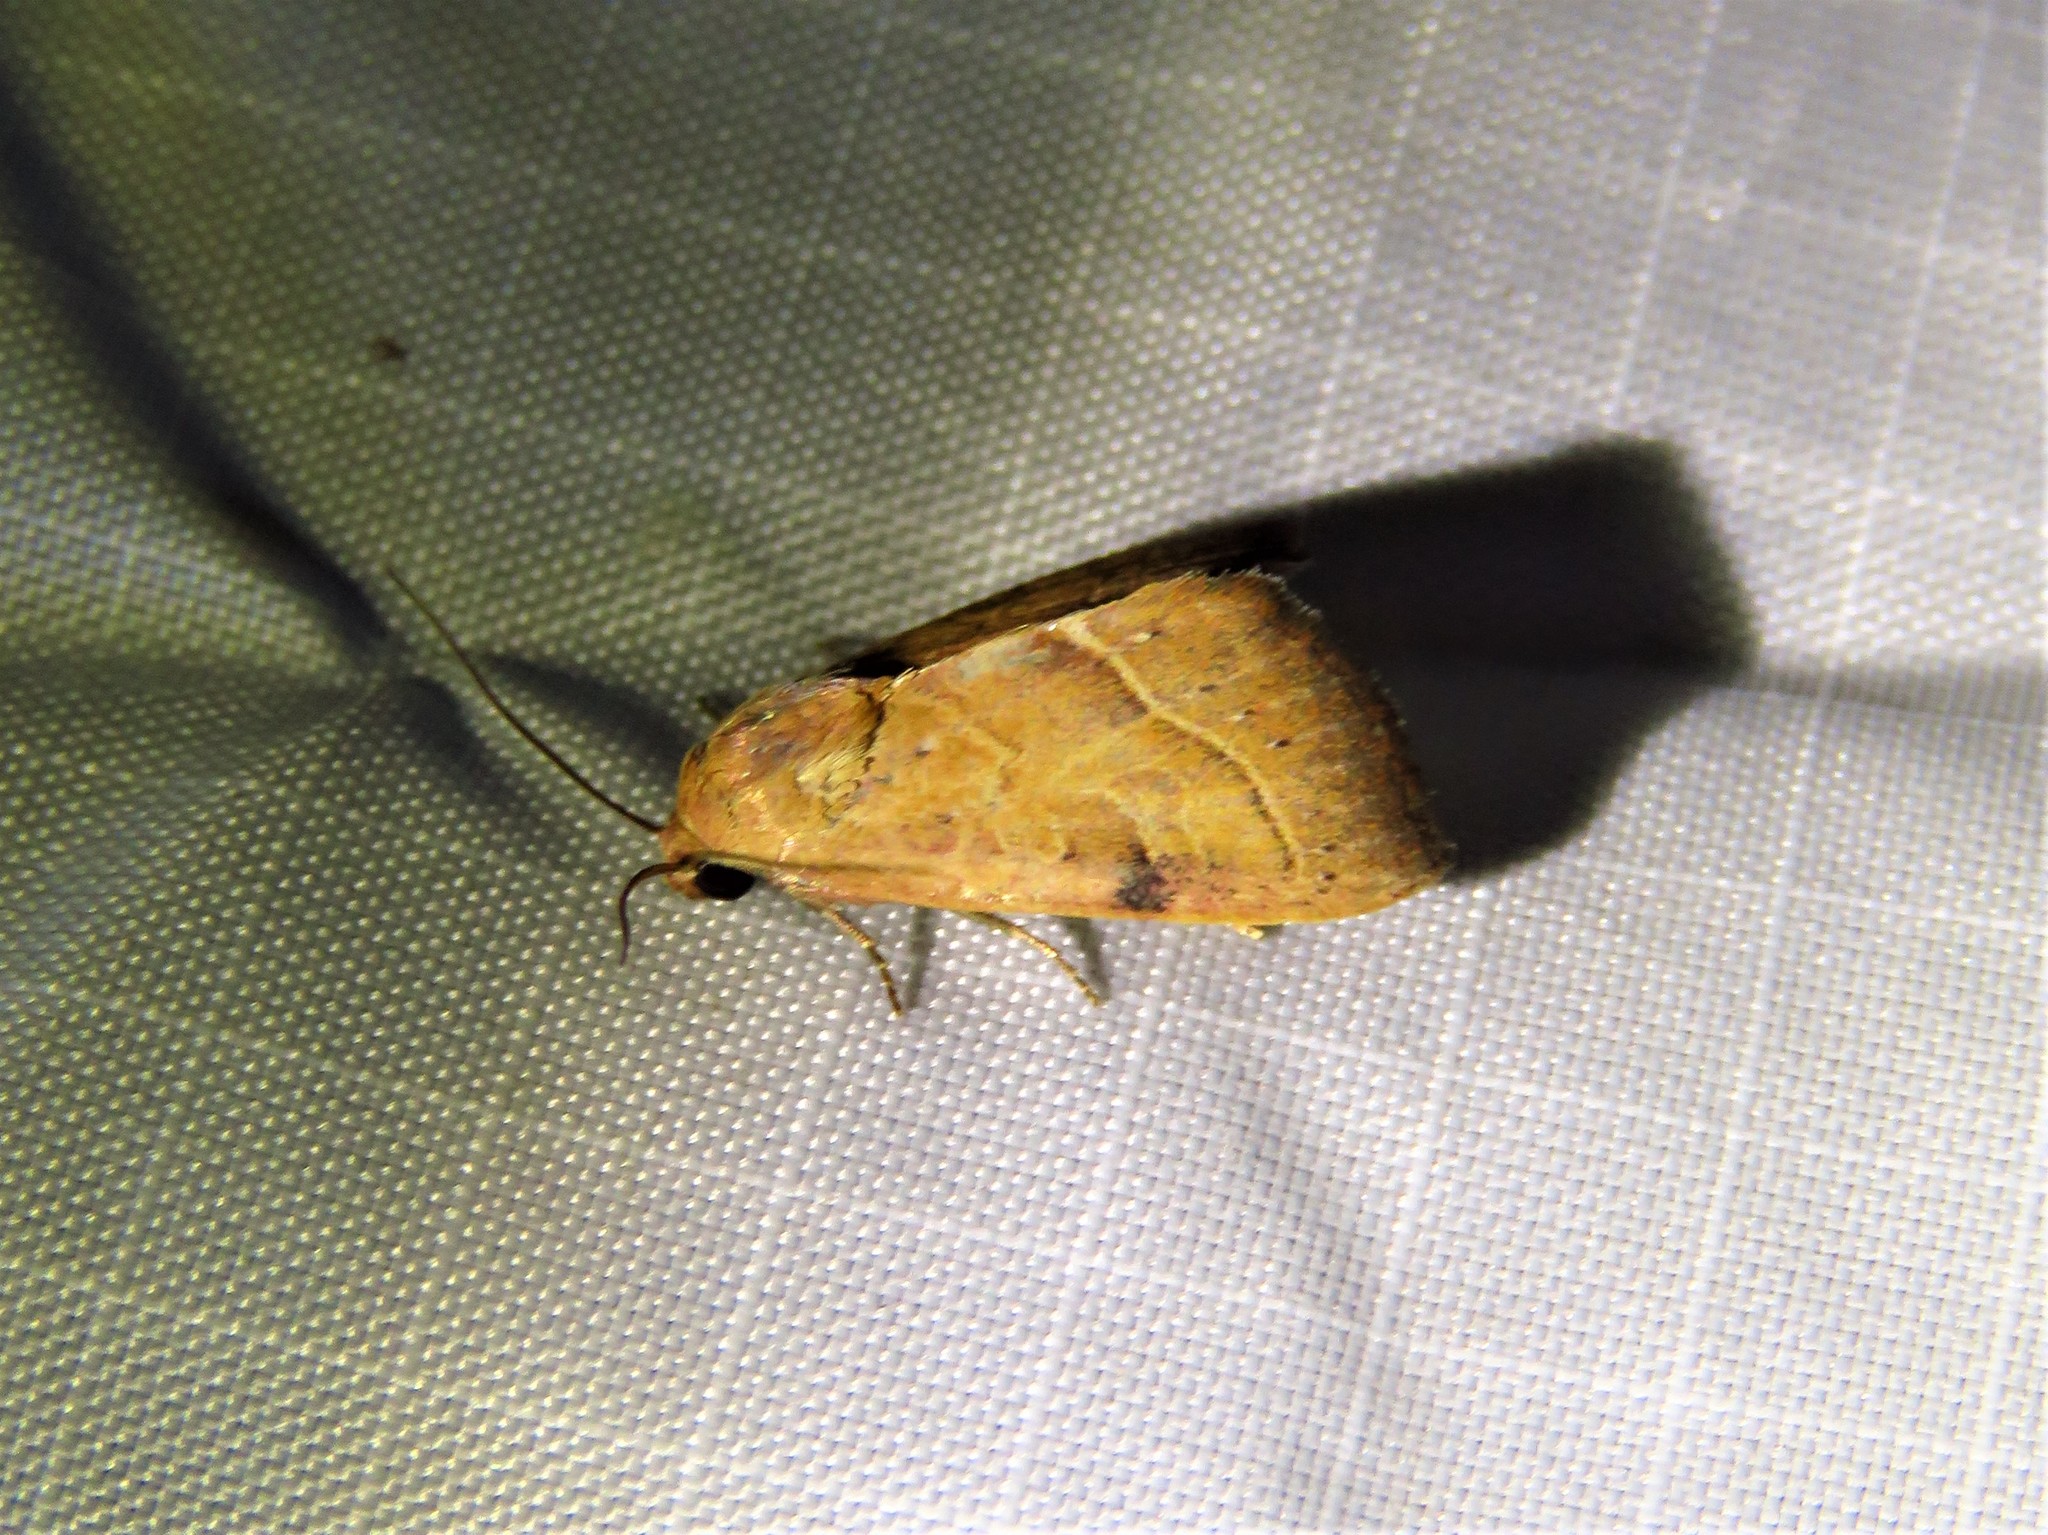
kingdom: Animalia
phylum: Arthropoda
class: Insecta
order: Lepidoptera
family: Noctuidae
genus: Galgula
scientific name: Galgula partita
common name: Wedgeling
